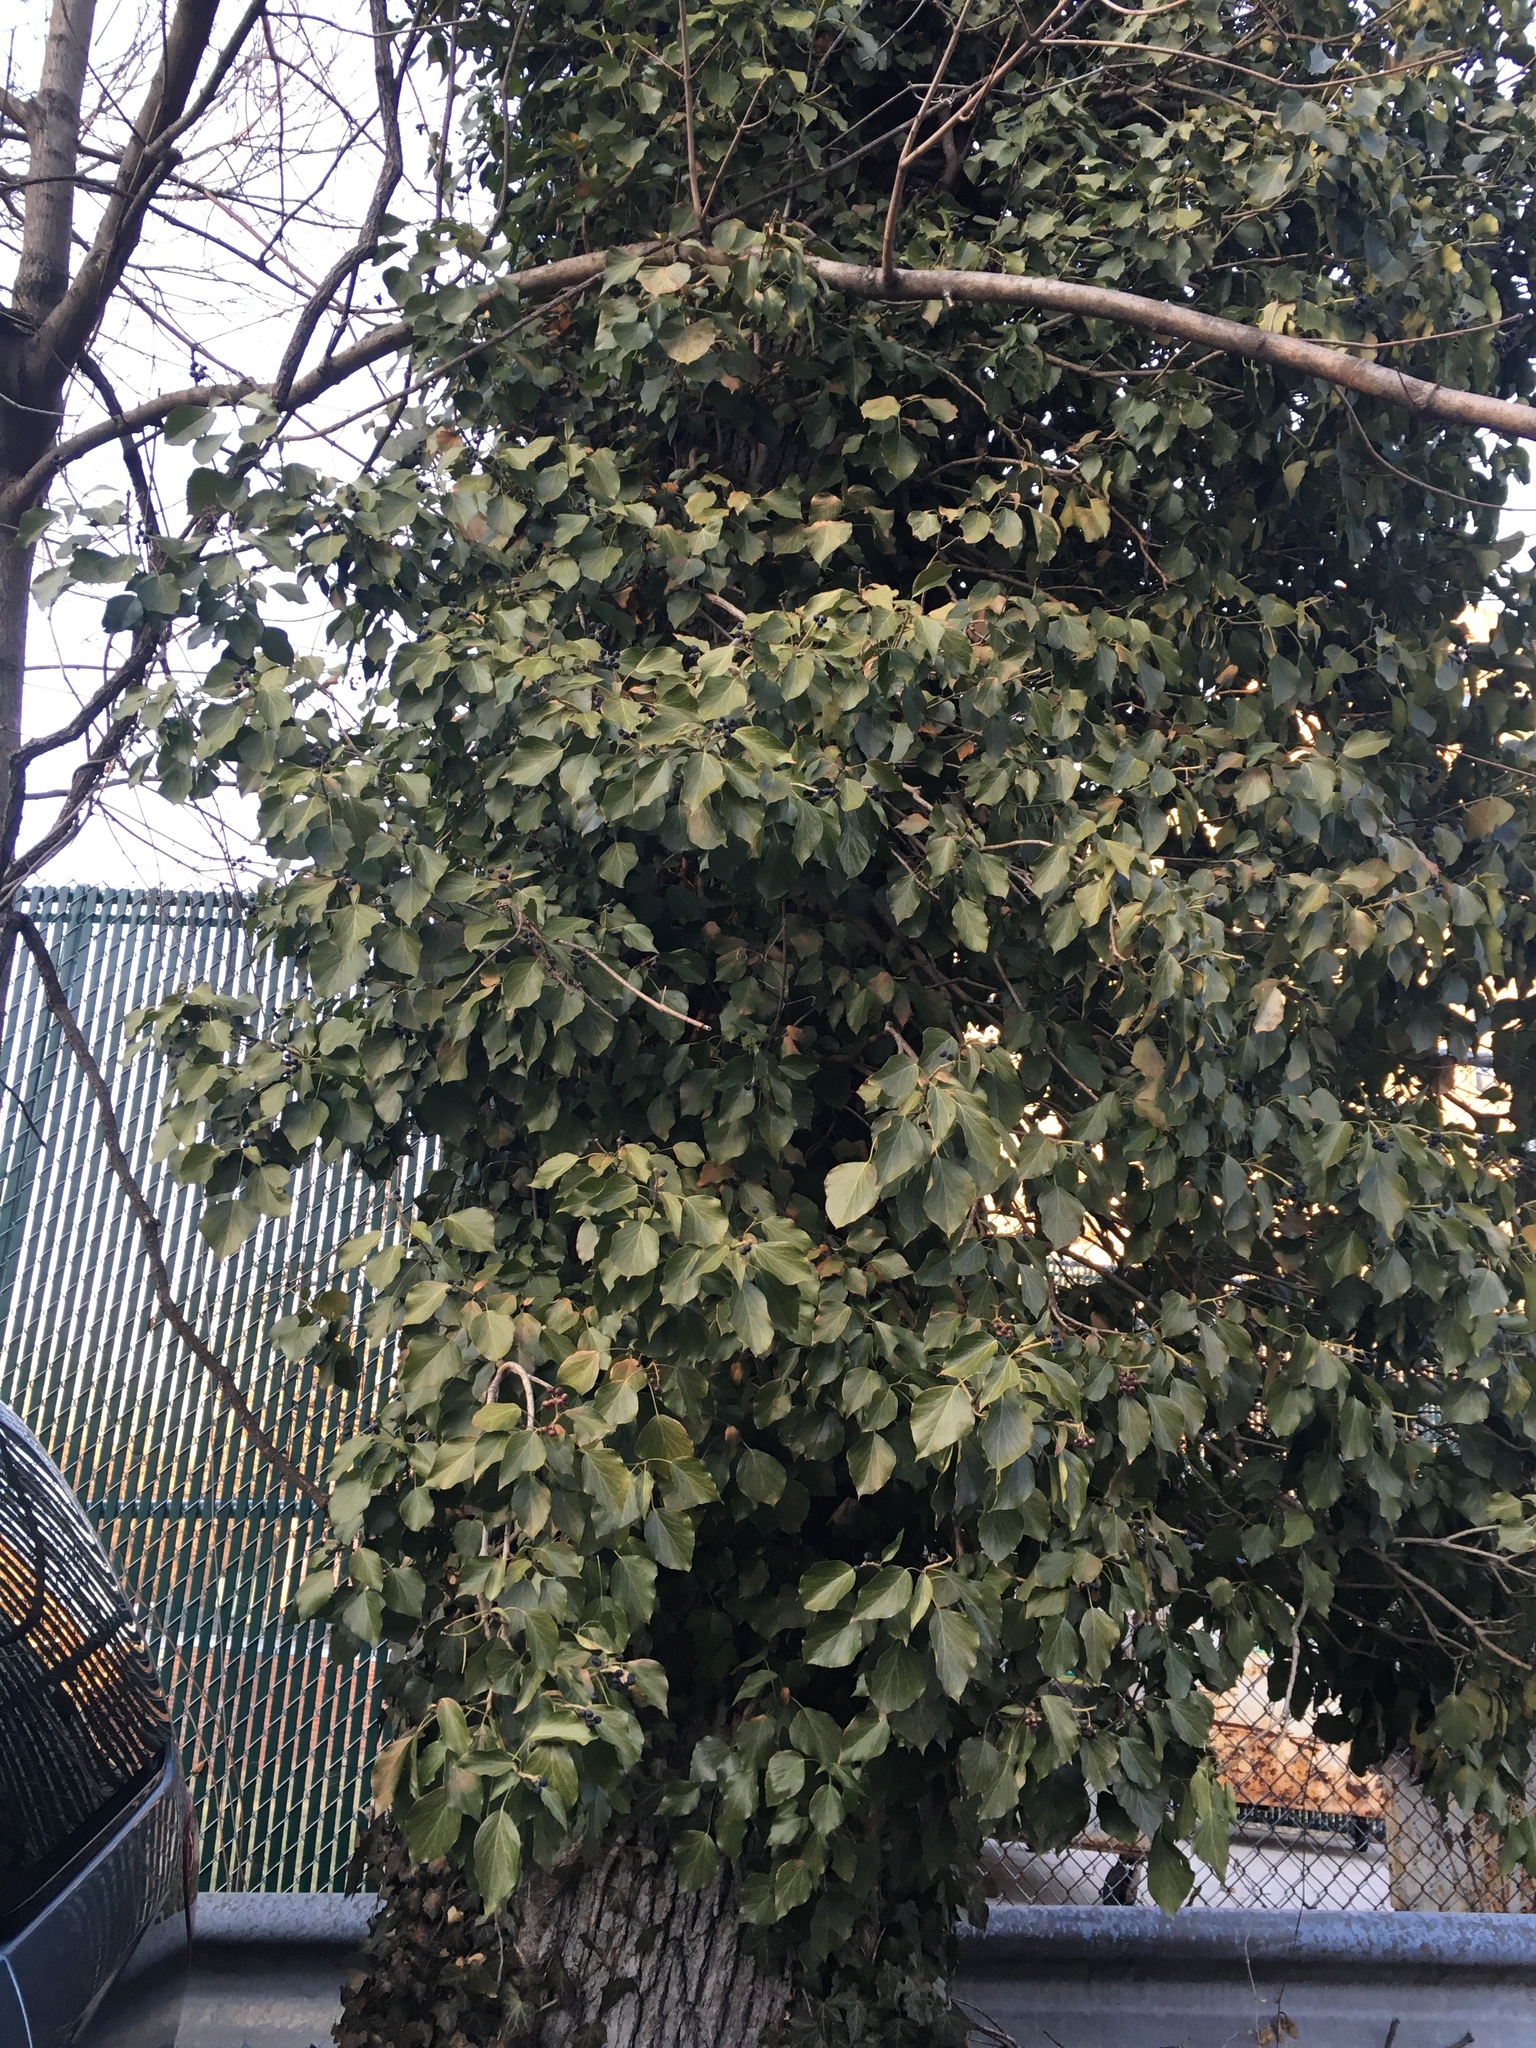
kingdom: Plantae
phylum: Tracheophyta
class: Magnoliopsida
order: Apiales
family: Araliaceae
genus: Hedera
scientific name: Hedera helix
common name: Ivy
